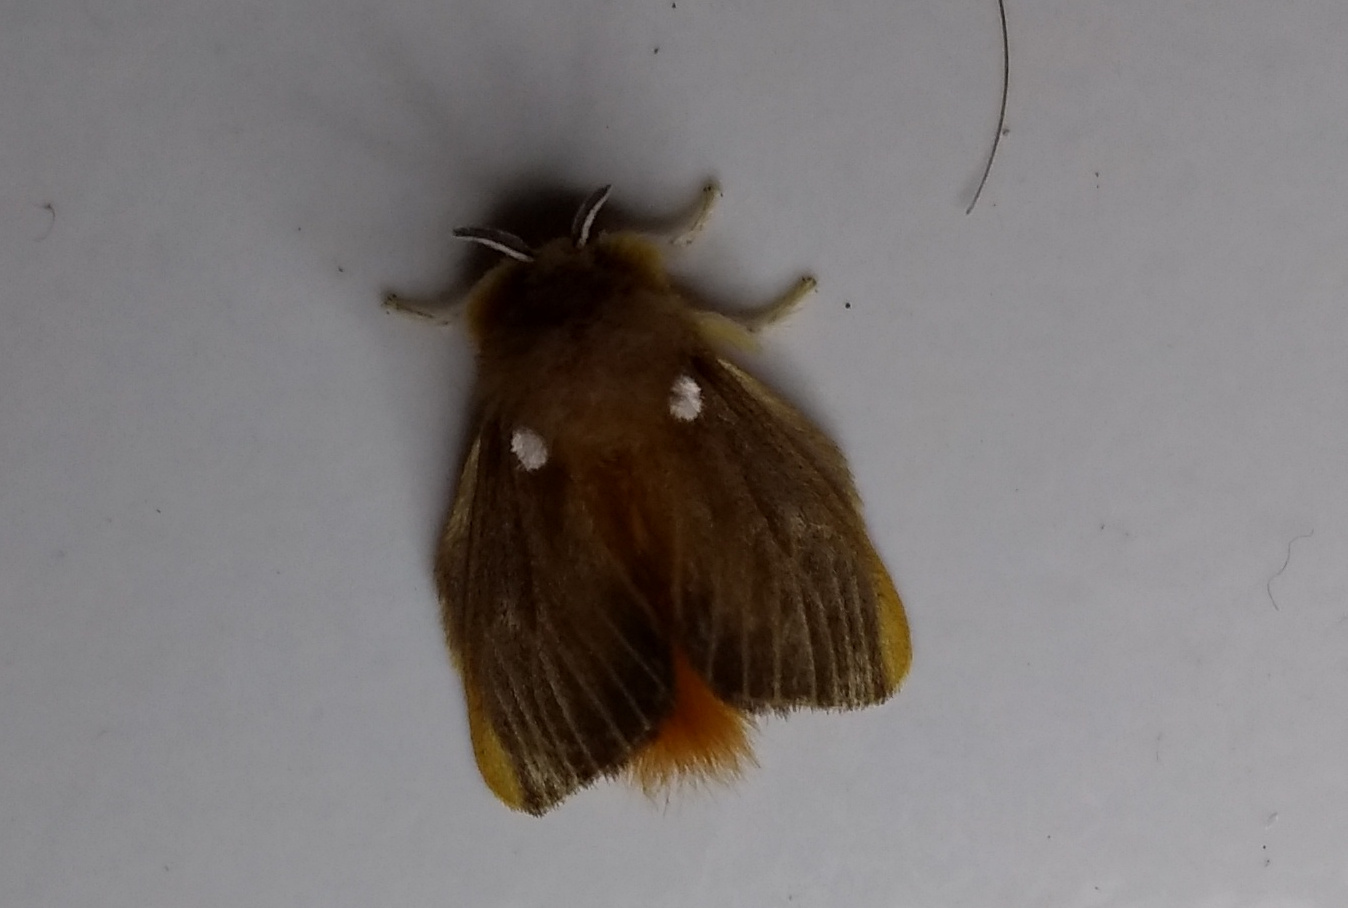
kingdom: Animalia
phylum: Arthropoda
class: Insecta
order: Lepidoptera
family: Megalopygidae
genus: Megalopyge
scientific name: Megalopyge basalis
